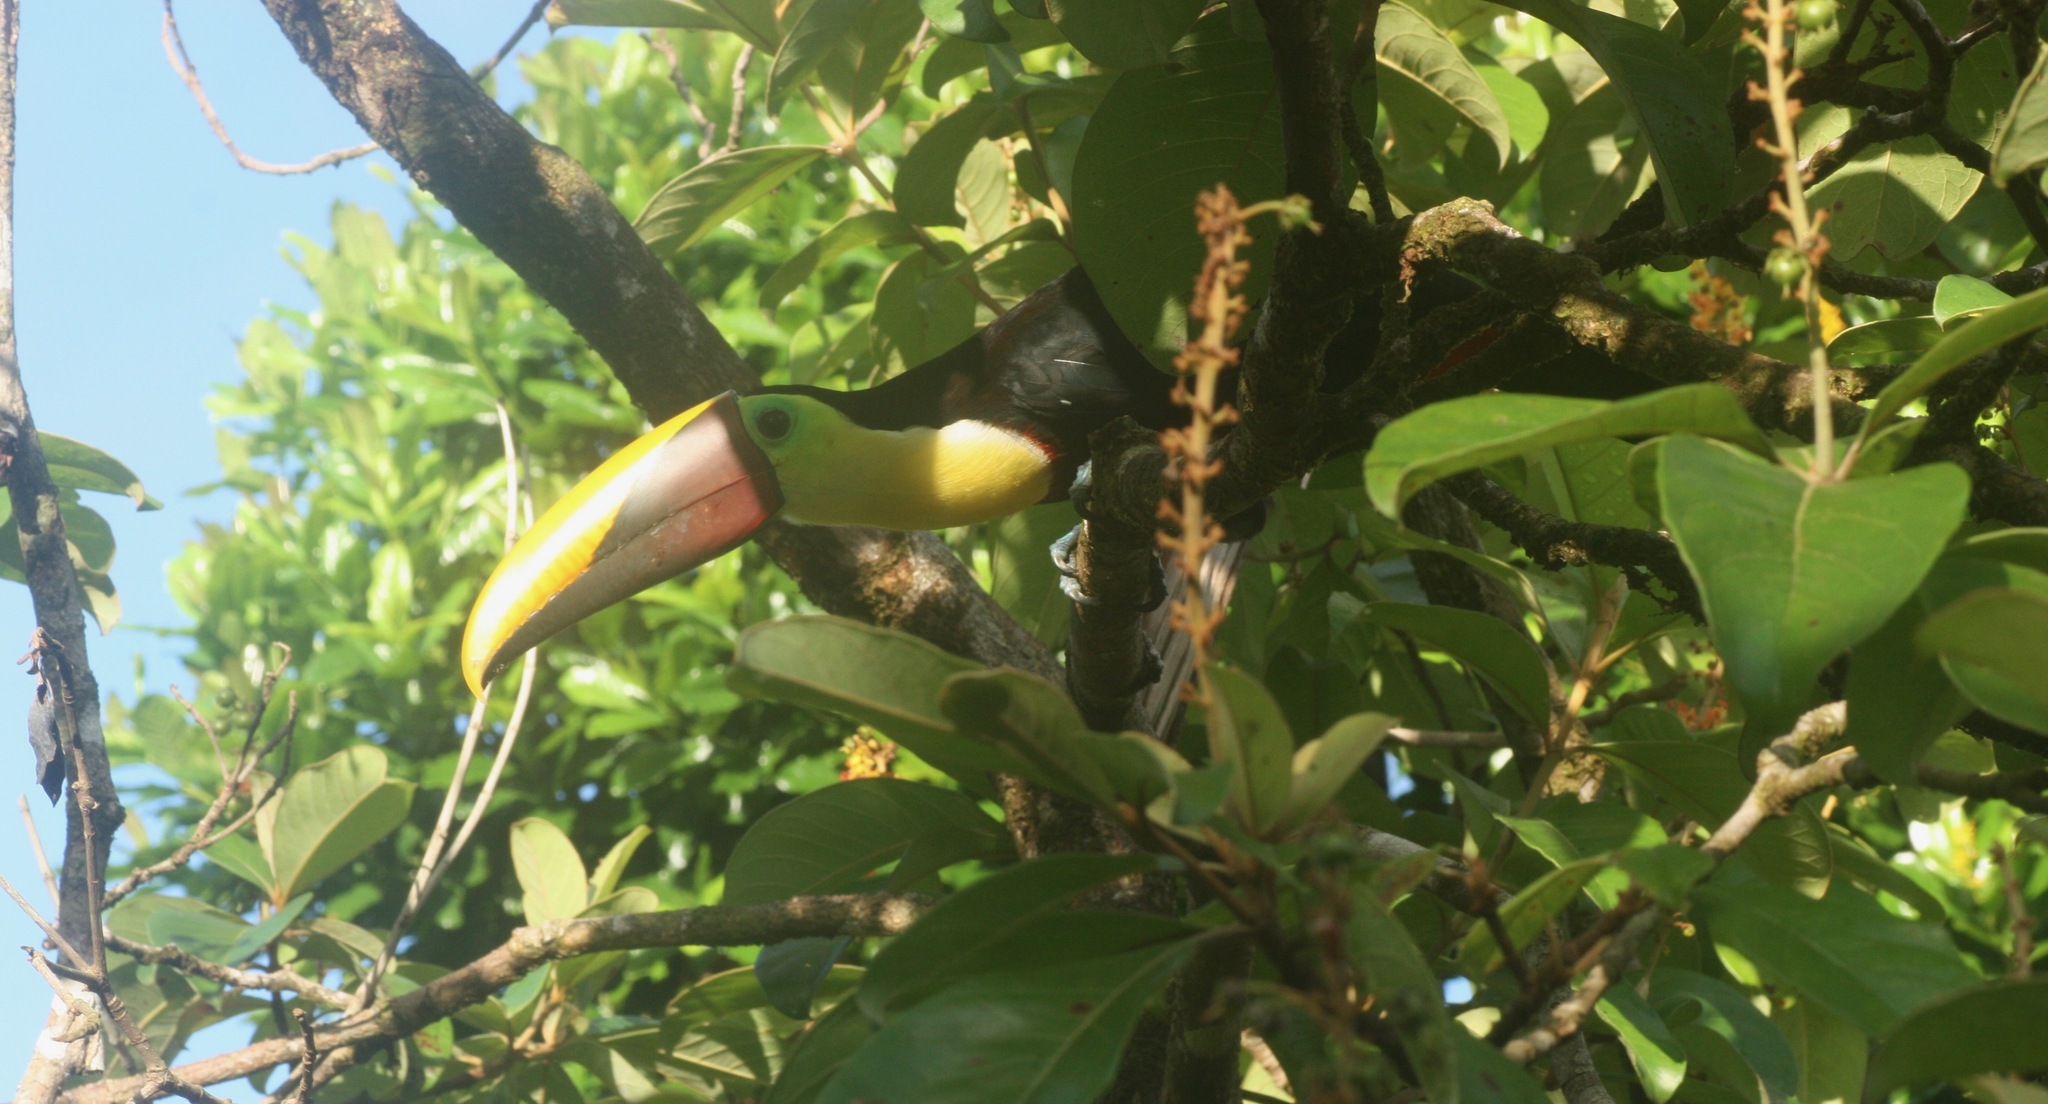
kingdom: Animalia
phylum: Chordata
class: Aves
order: Piciformes
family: Ramphastidae
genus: Ramphastos
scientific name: Ramphastos ambiguus
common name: Yellow-throated toucan
